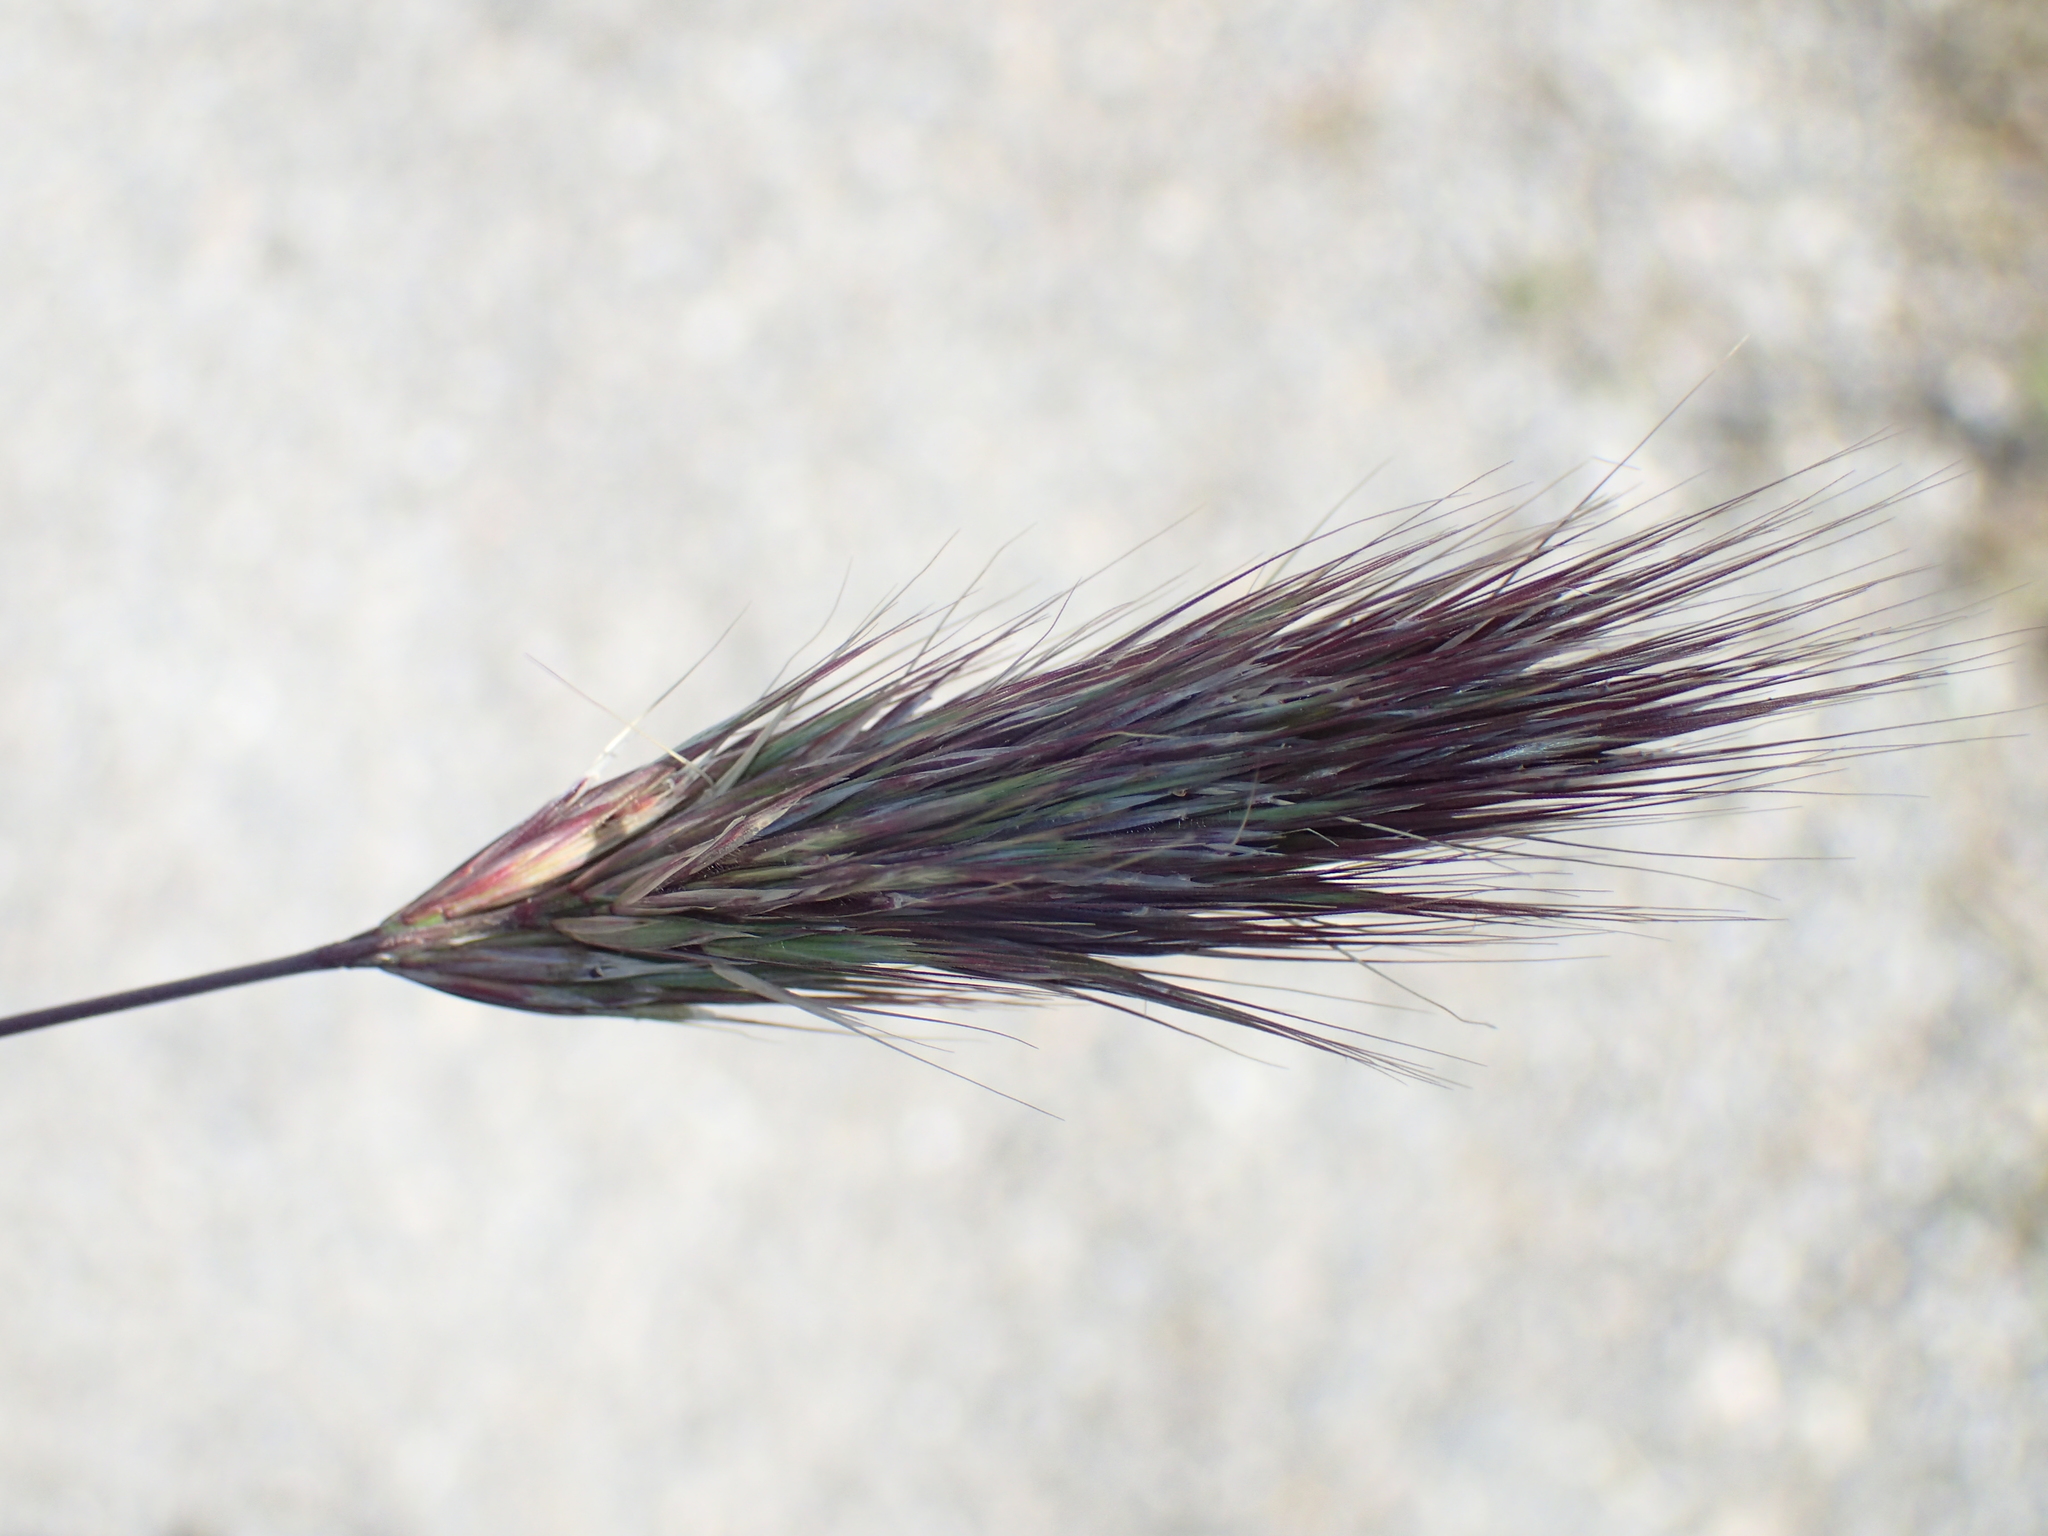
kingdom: Plantae
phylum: Tracheophyta
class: Liliopsida
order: Poales
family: Poaceae
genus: Bromus
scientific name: Bromus rubens
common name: Red brome
